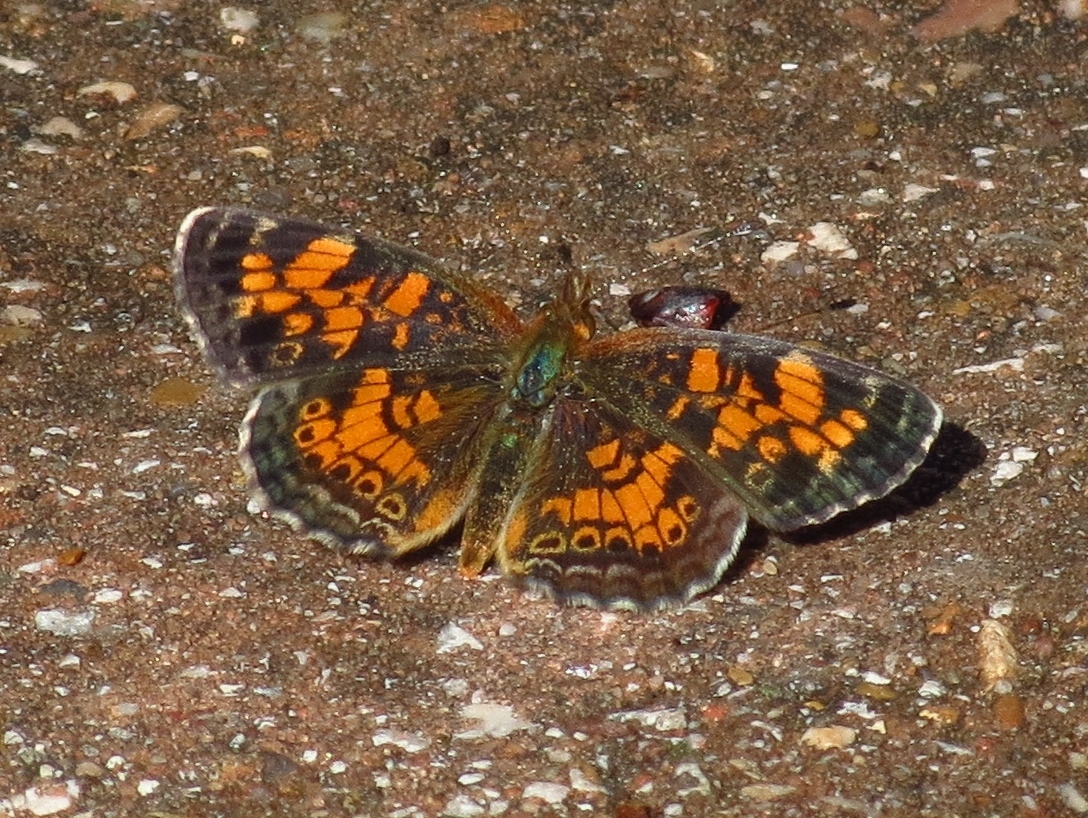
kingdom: Animalia
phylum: Arthropoda
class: Insecta
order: Lepidoptera
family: Nymphalidae
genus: Phyciodes
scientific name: Phyciodes tharos
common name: Pearl crescent
